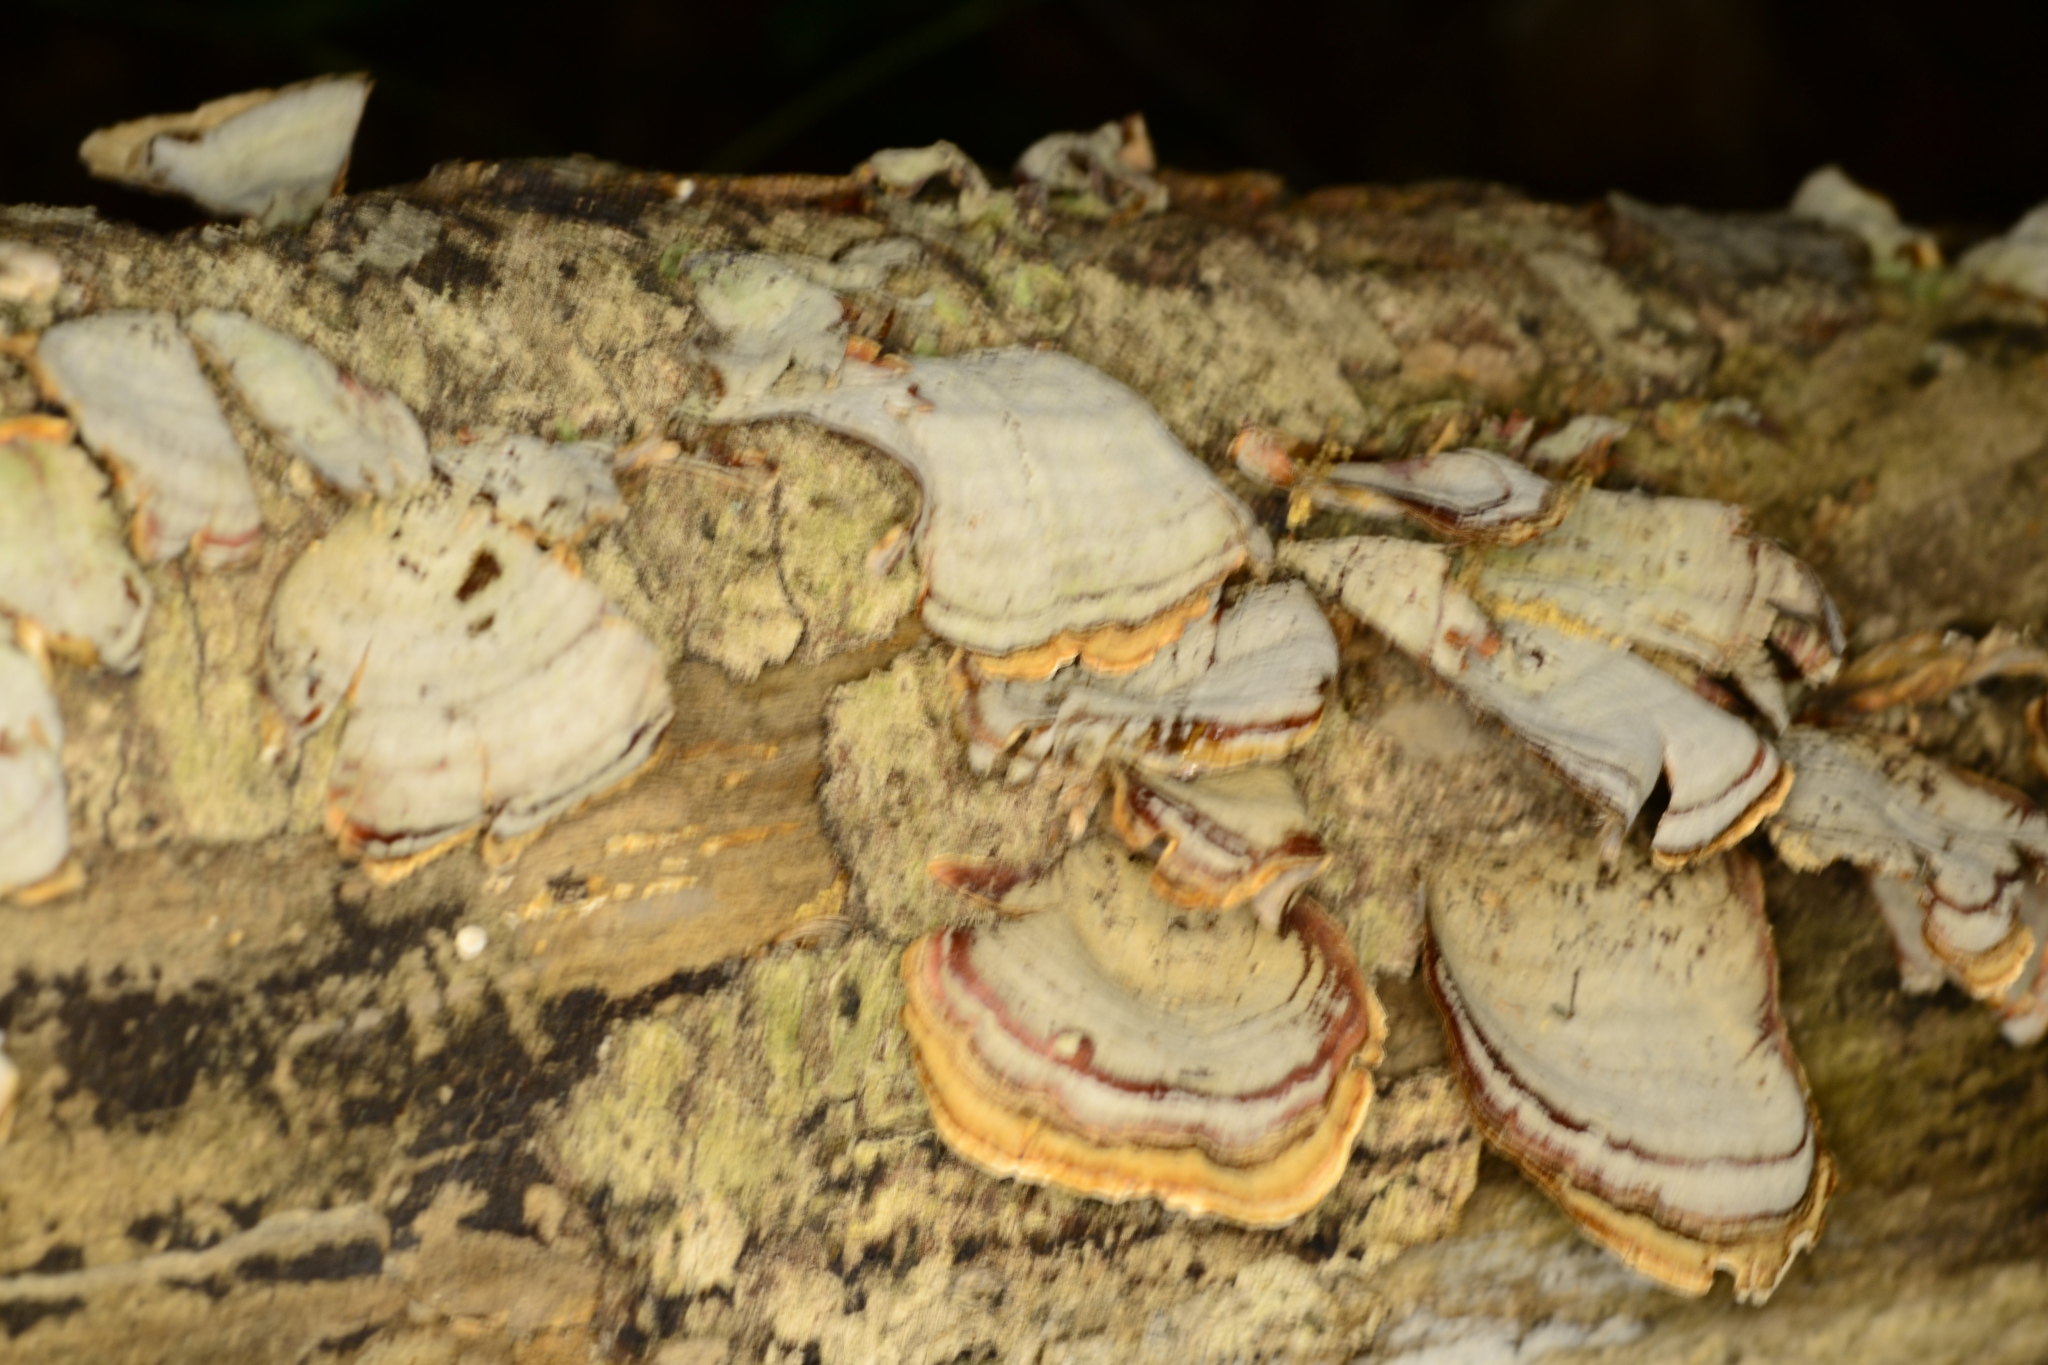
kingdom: Fungi
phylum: Basidiomycota
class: Agaricomycetes
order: Russulales
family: Stereaceae
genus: Stereum
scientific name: Stereum ostrea
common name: False turkeytail
